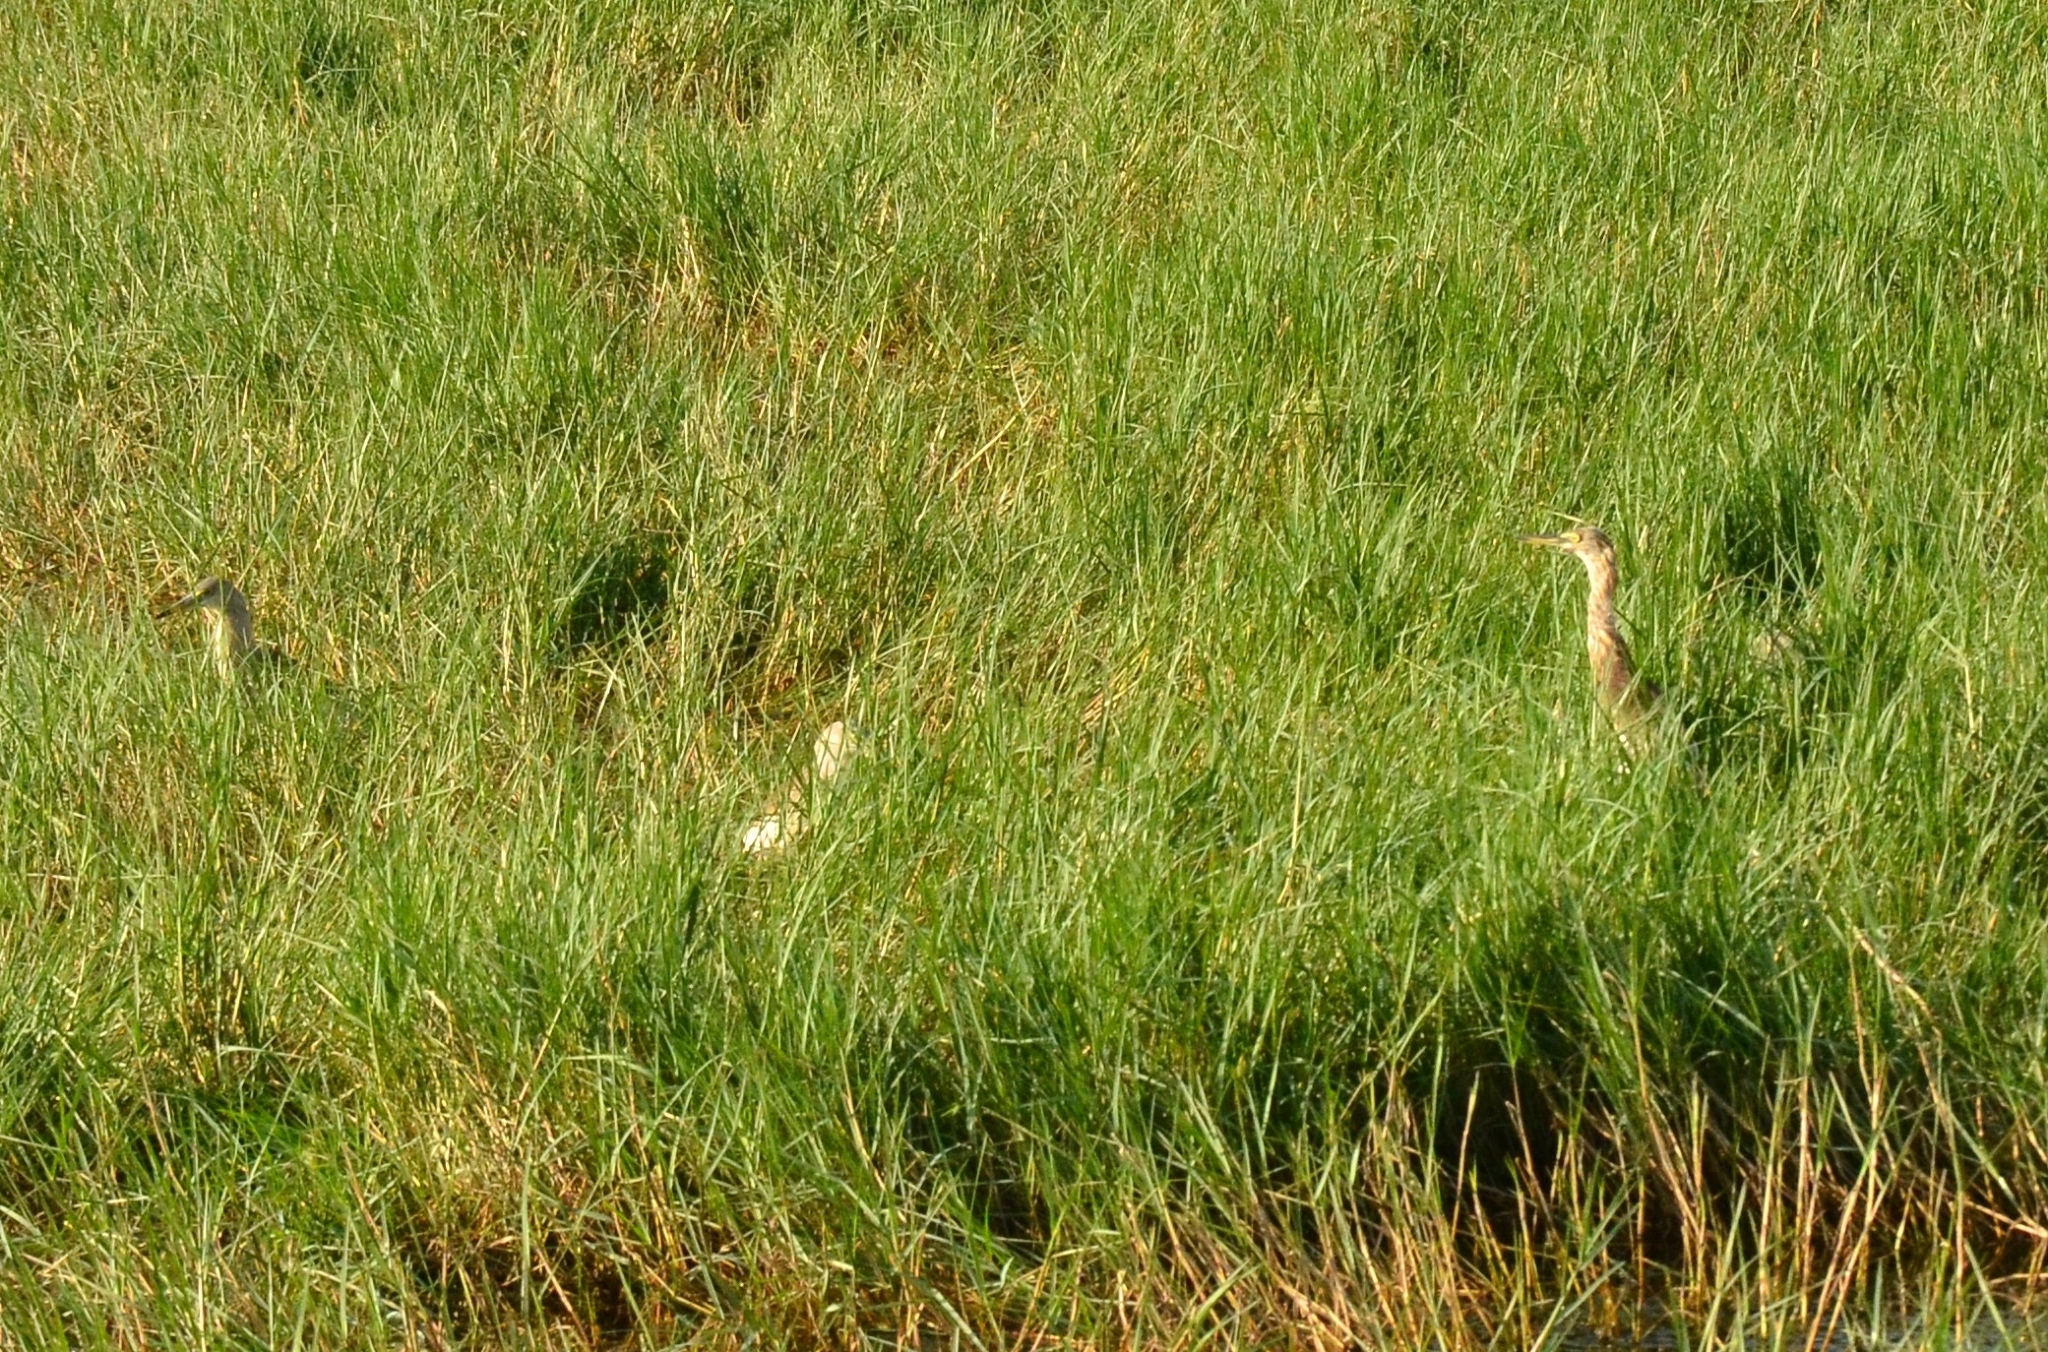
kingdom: Animalia
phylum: Chordata
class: Aves
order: Pelecaniformes
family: Ardeidae
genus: Ardeola
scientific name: Ardeola grayii
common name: Indian pond heron
